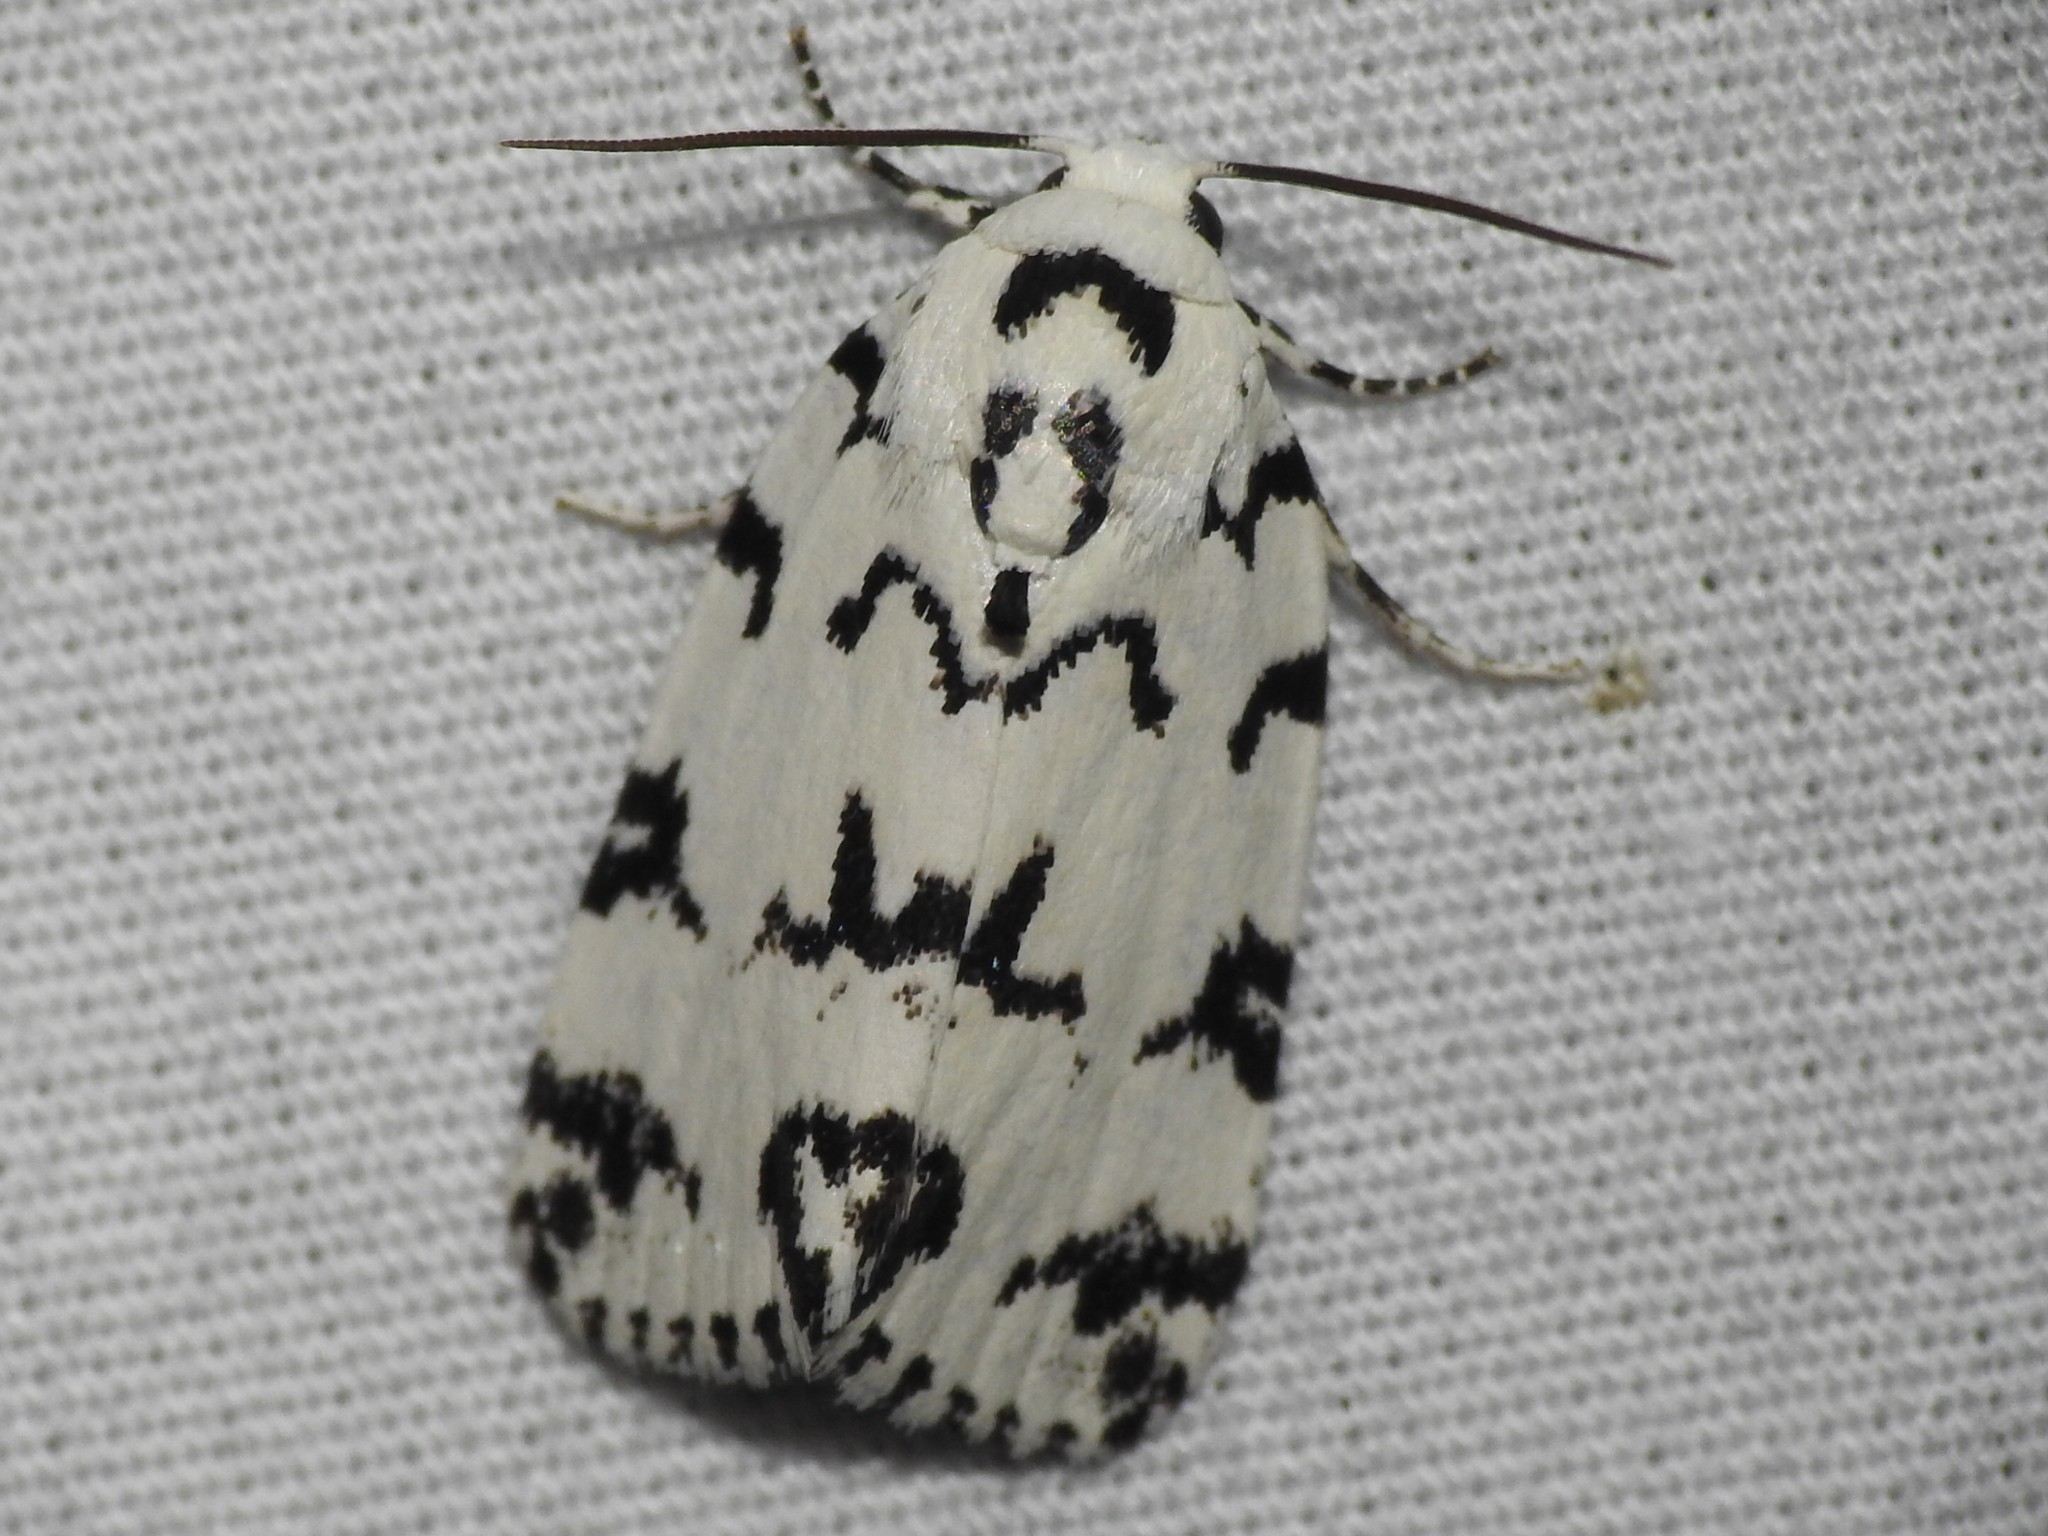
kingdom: Animalia
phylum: Arthropoda
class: Insecta
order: Lepidoptera
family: Noctuidae
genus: Polygrammate
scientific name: Polygrammate hebraeicum
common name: Hebrew moth
